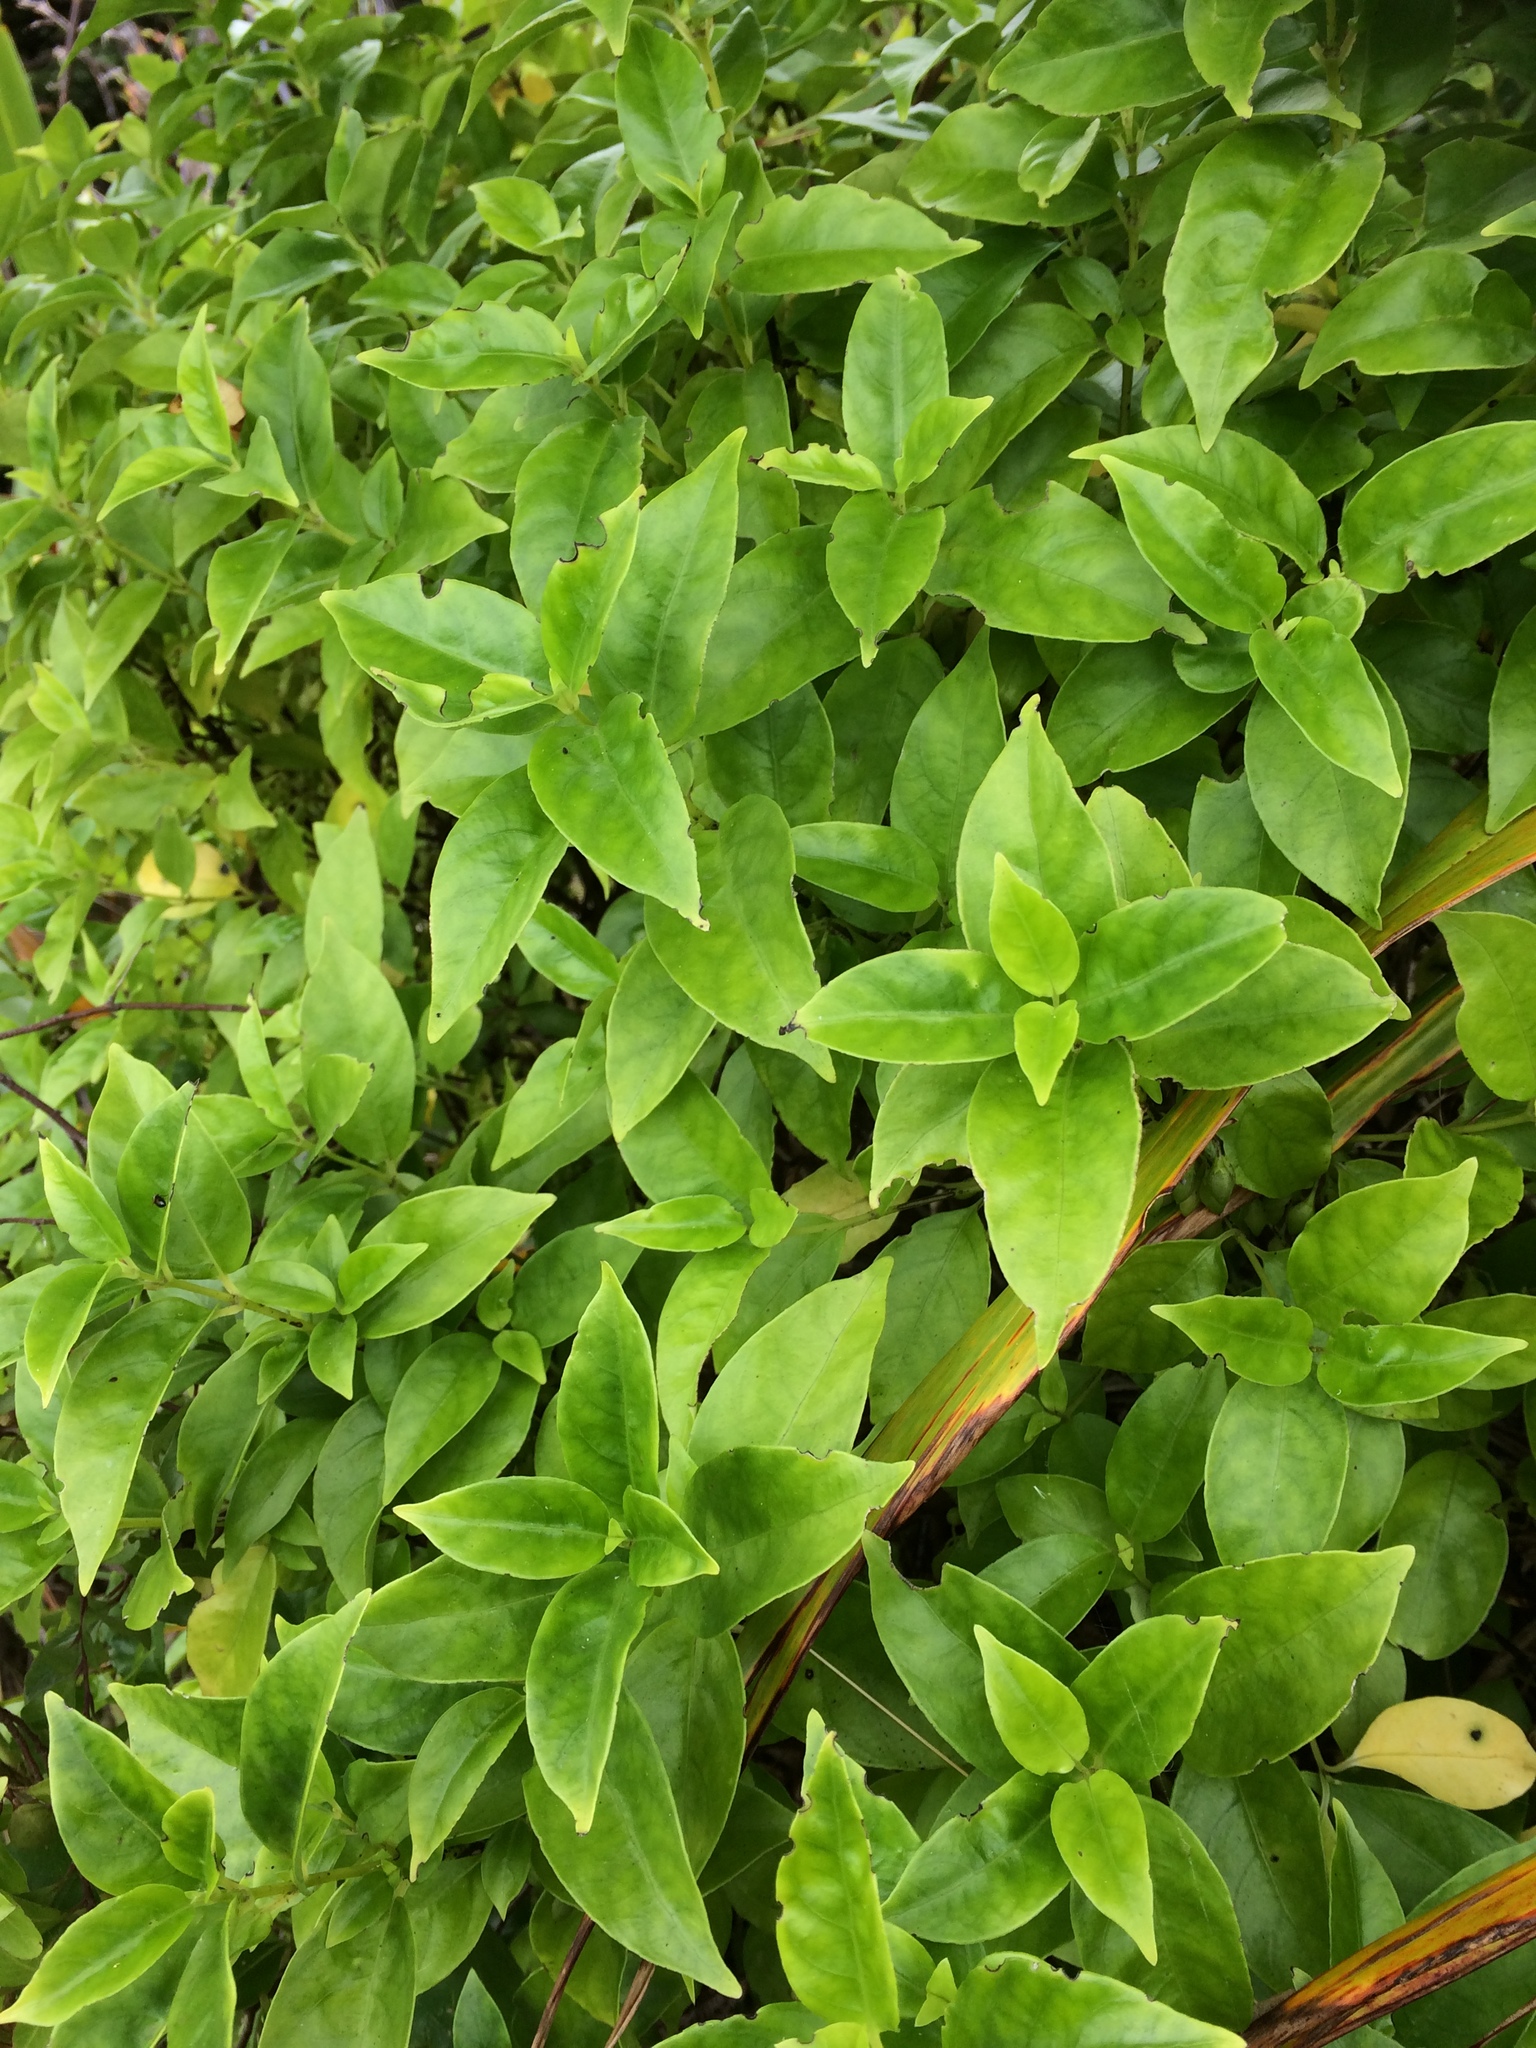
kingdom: Plantae
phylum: Tracheophyta
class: Magnoliopsida
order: Gentianales
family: Loganiaceae
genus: Geniostoma
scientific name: Geniostoma ligustrifolium
